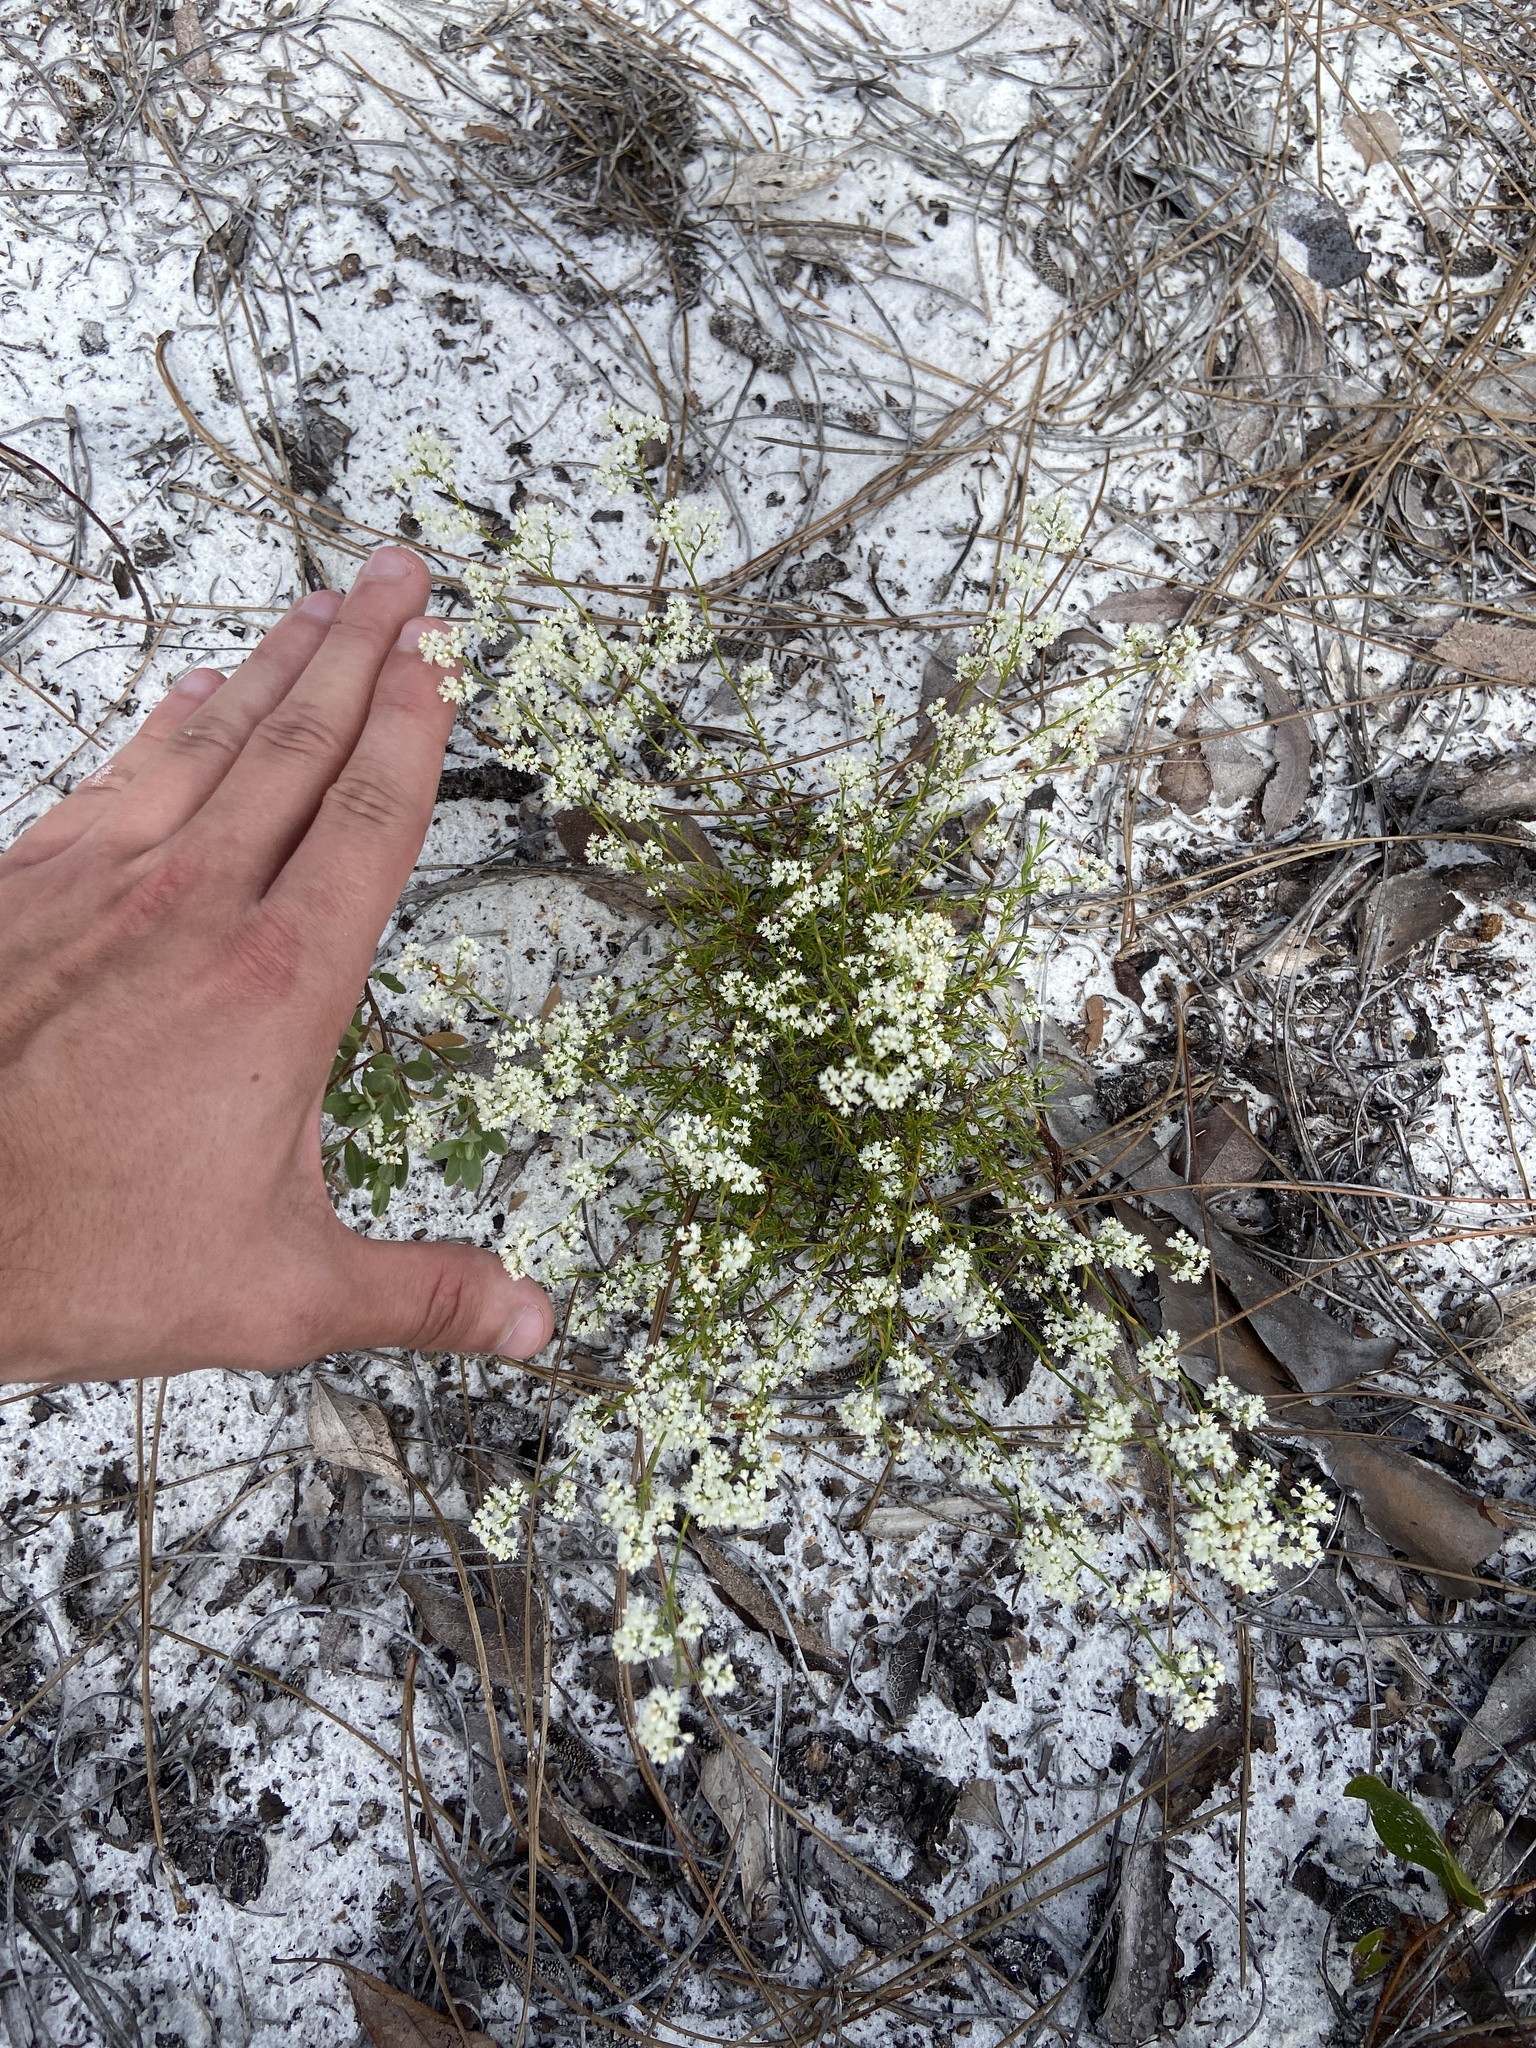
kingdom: Plantae
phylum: Tracheophyta
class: Magnoliopsida
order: Caryophyllales
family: Polygonaceae
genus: Polygonella
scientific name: Polygonella polygama
